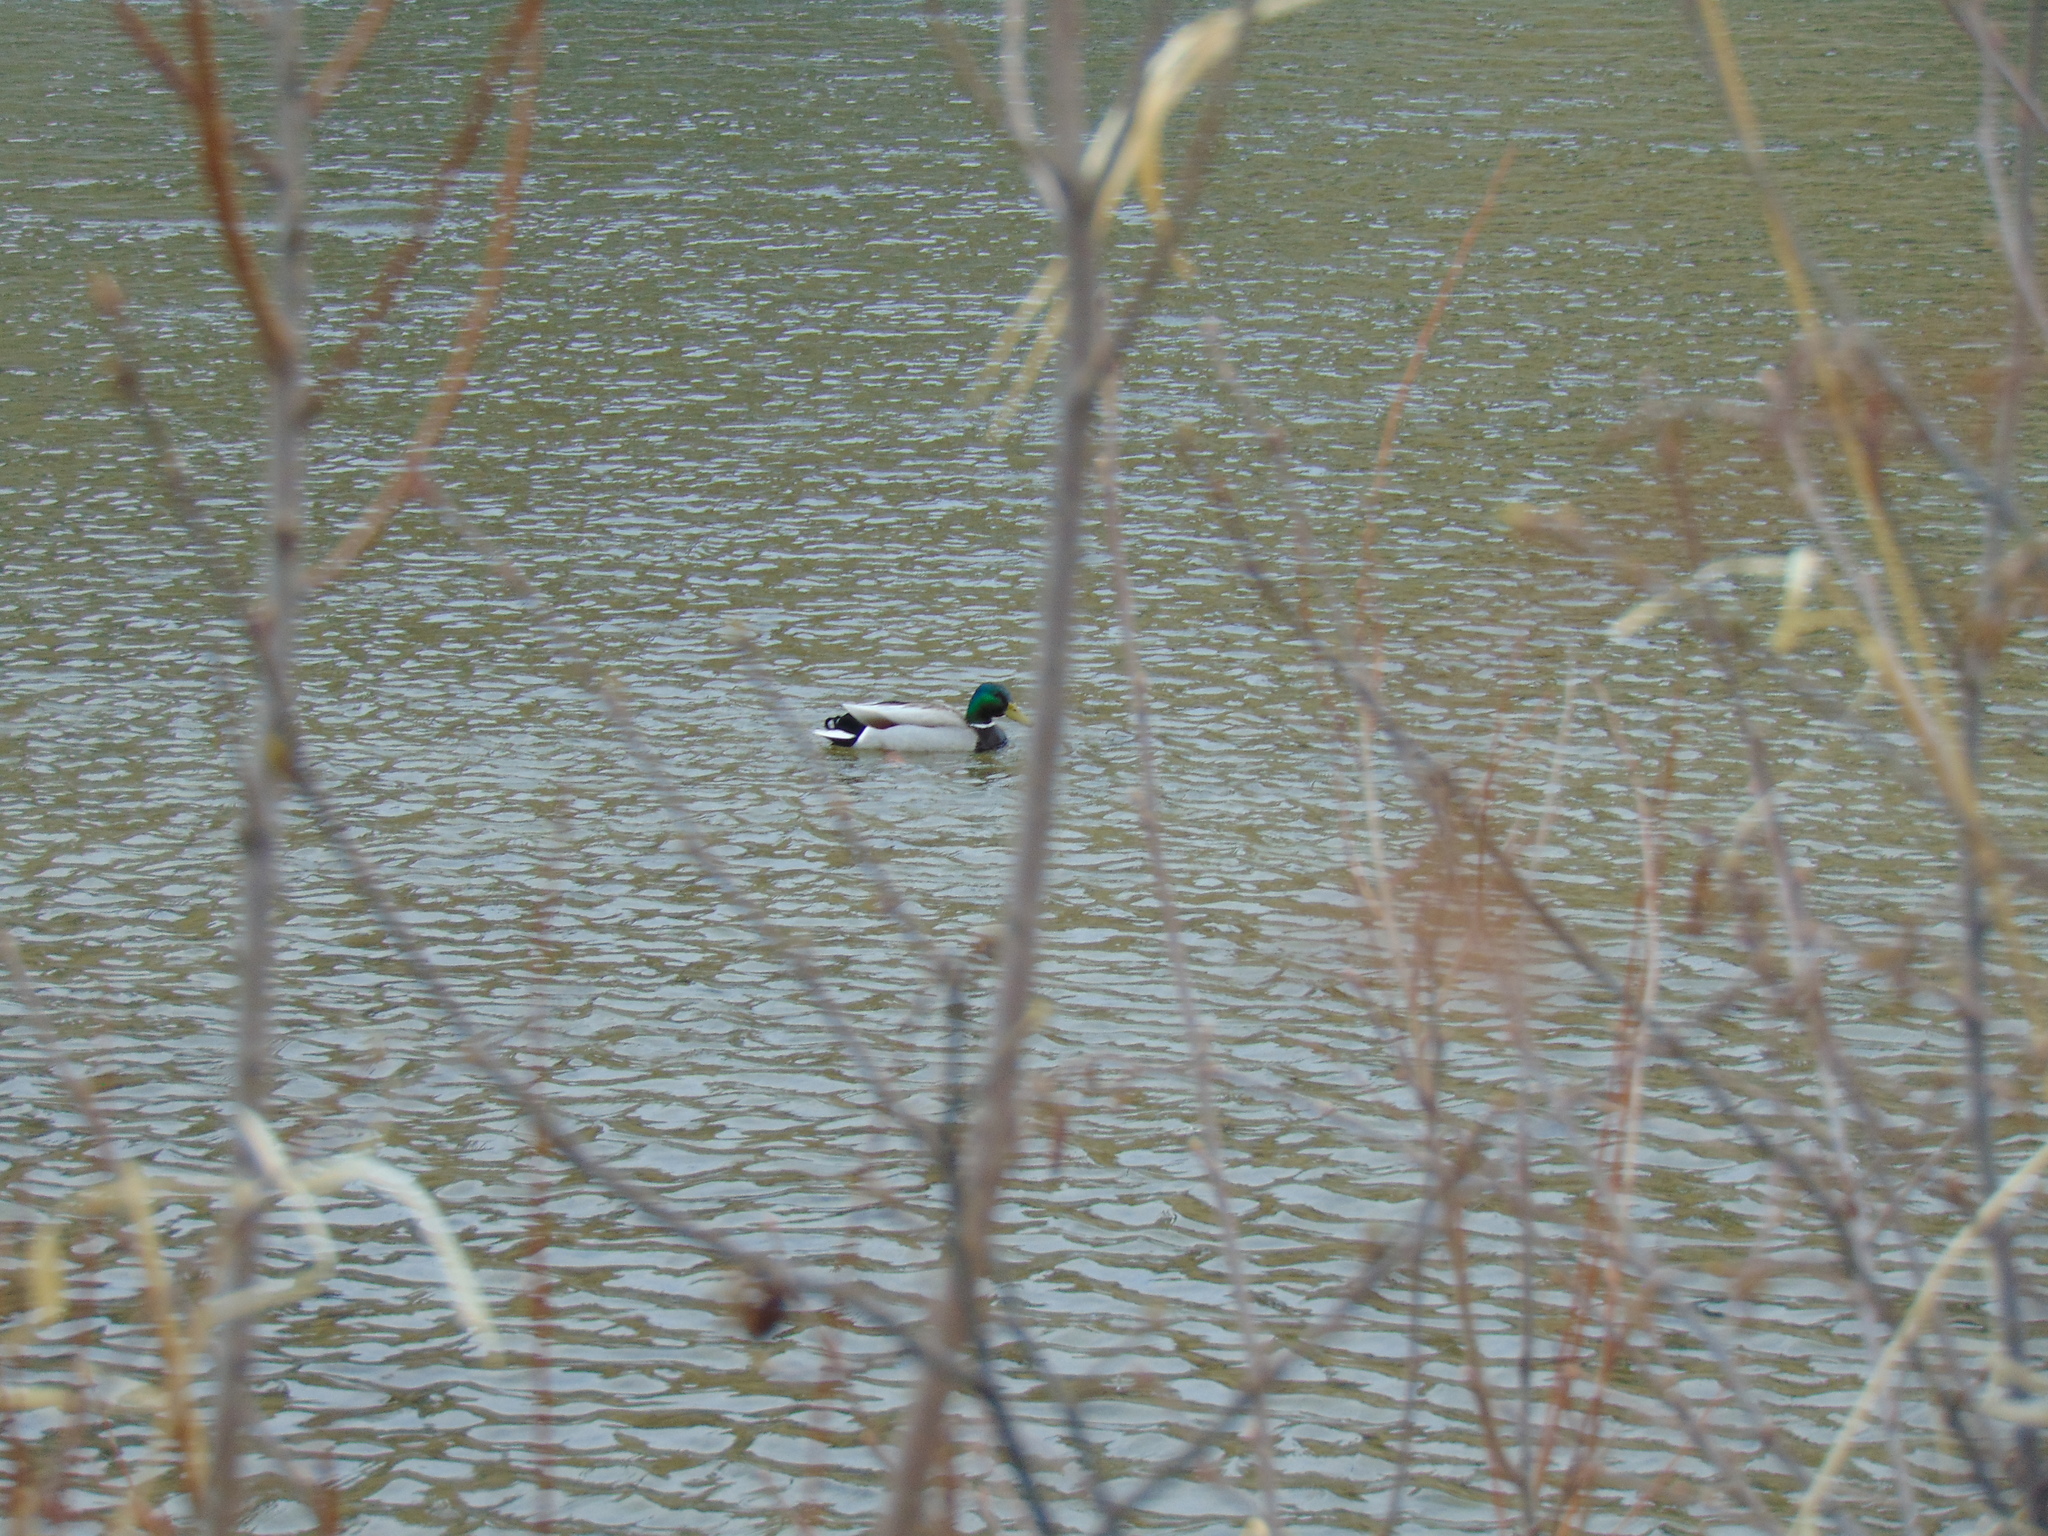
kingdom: Animalia
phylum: Chordata
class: Aves
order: Anseriformes
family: Anatidae
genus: Anas
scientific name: Anas platyrhynchos
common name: Mallard
